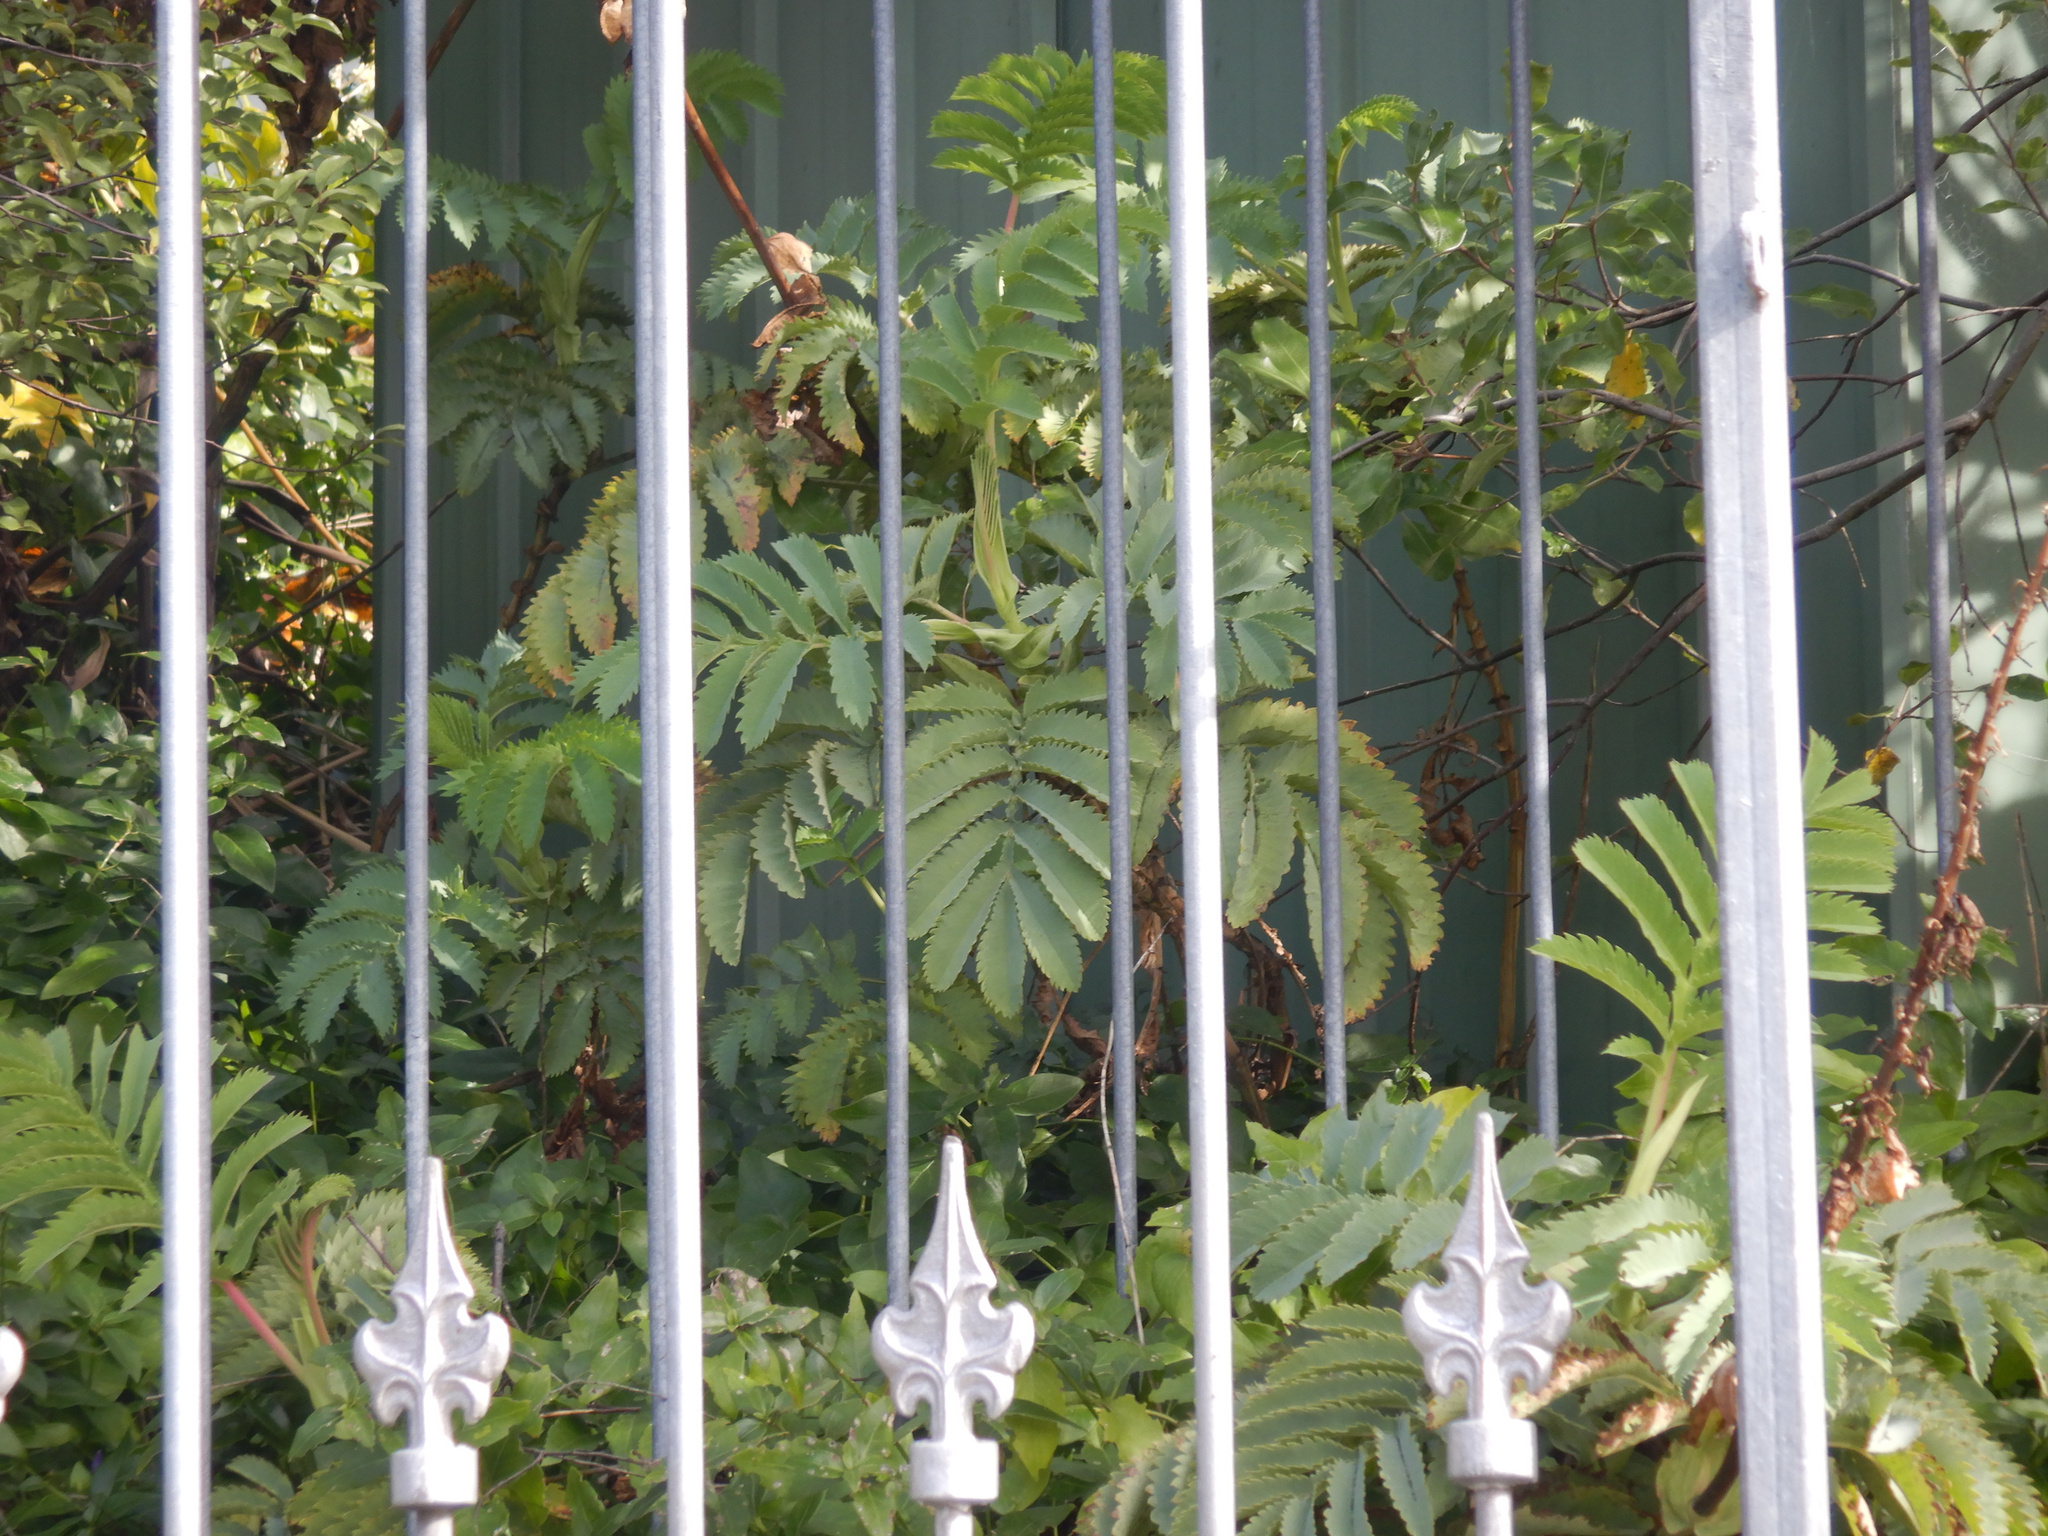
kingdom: Plantae
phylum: Tracheophyta
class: Magnoliopsida
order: Geraniales
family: Melianthaceae
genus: Melianthus
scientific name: Melianthus major
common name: Honey-flower
